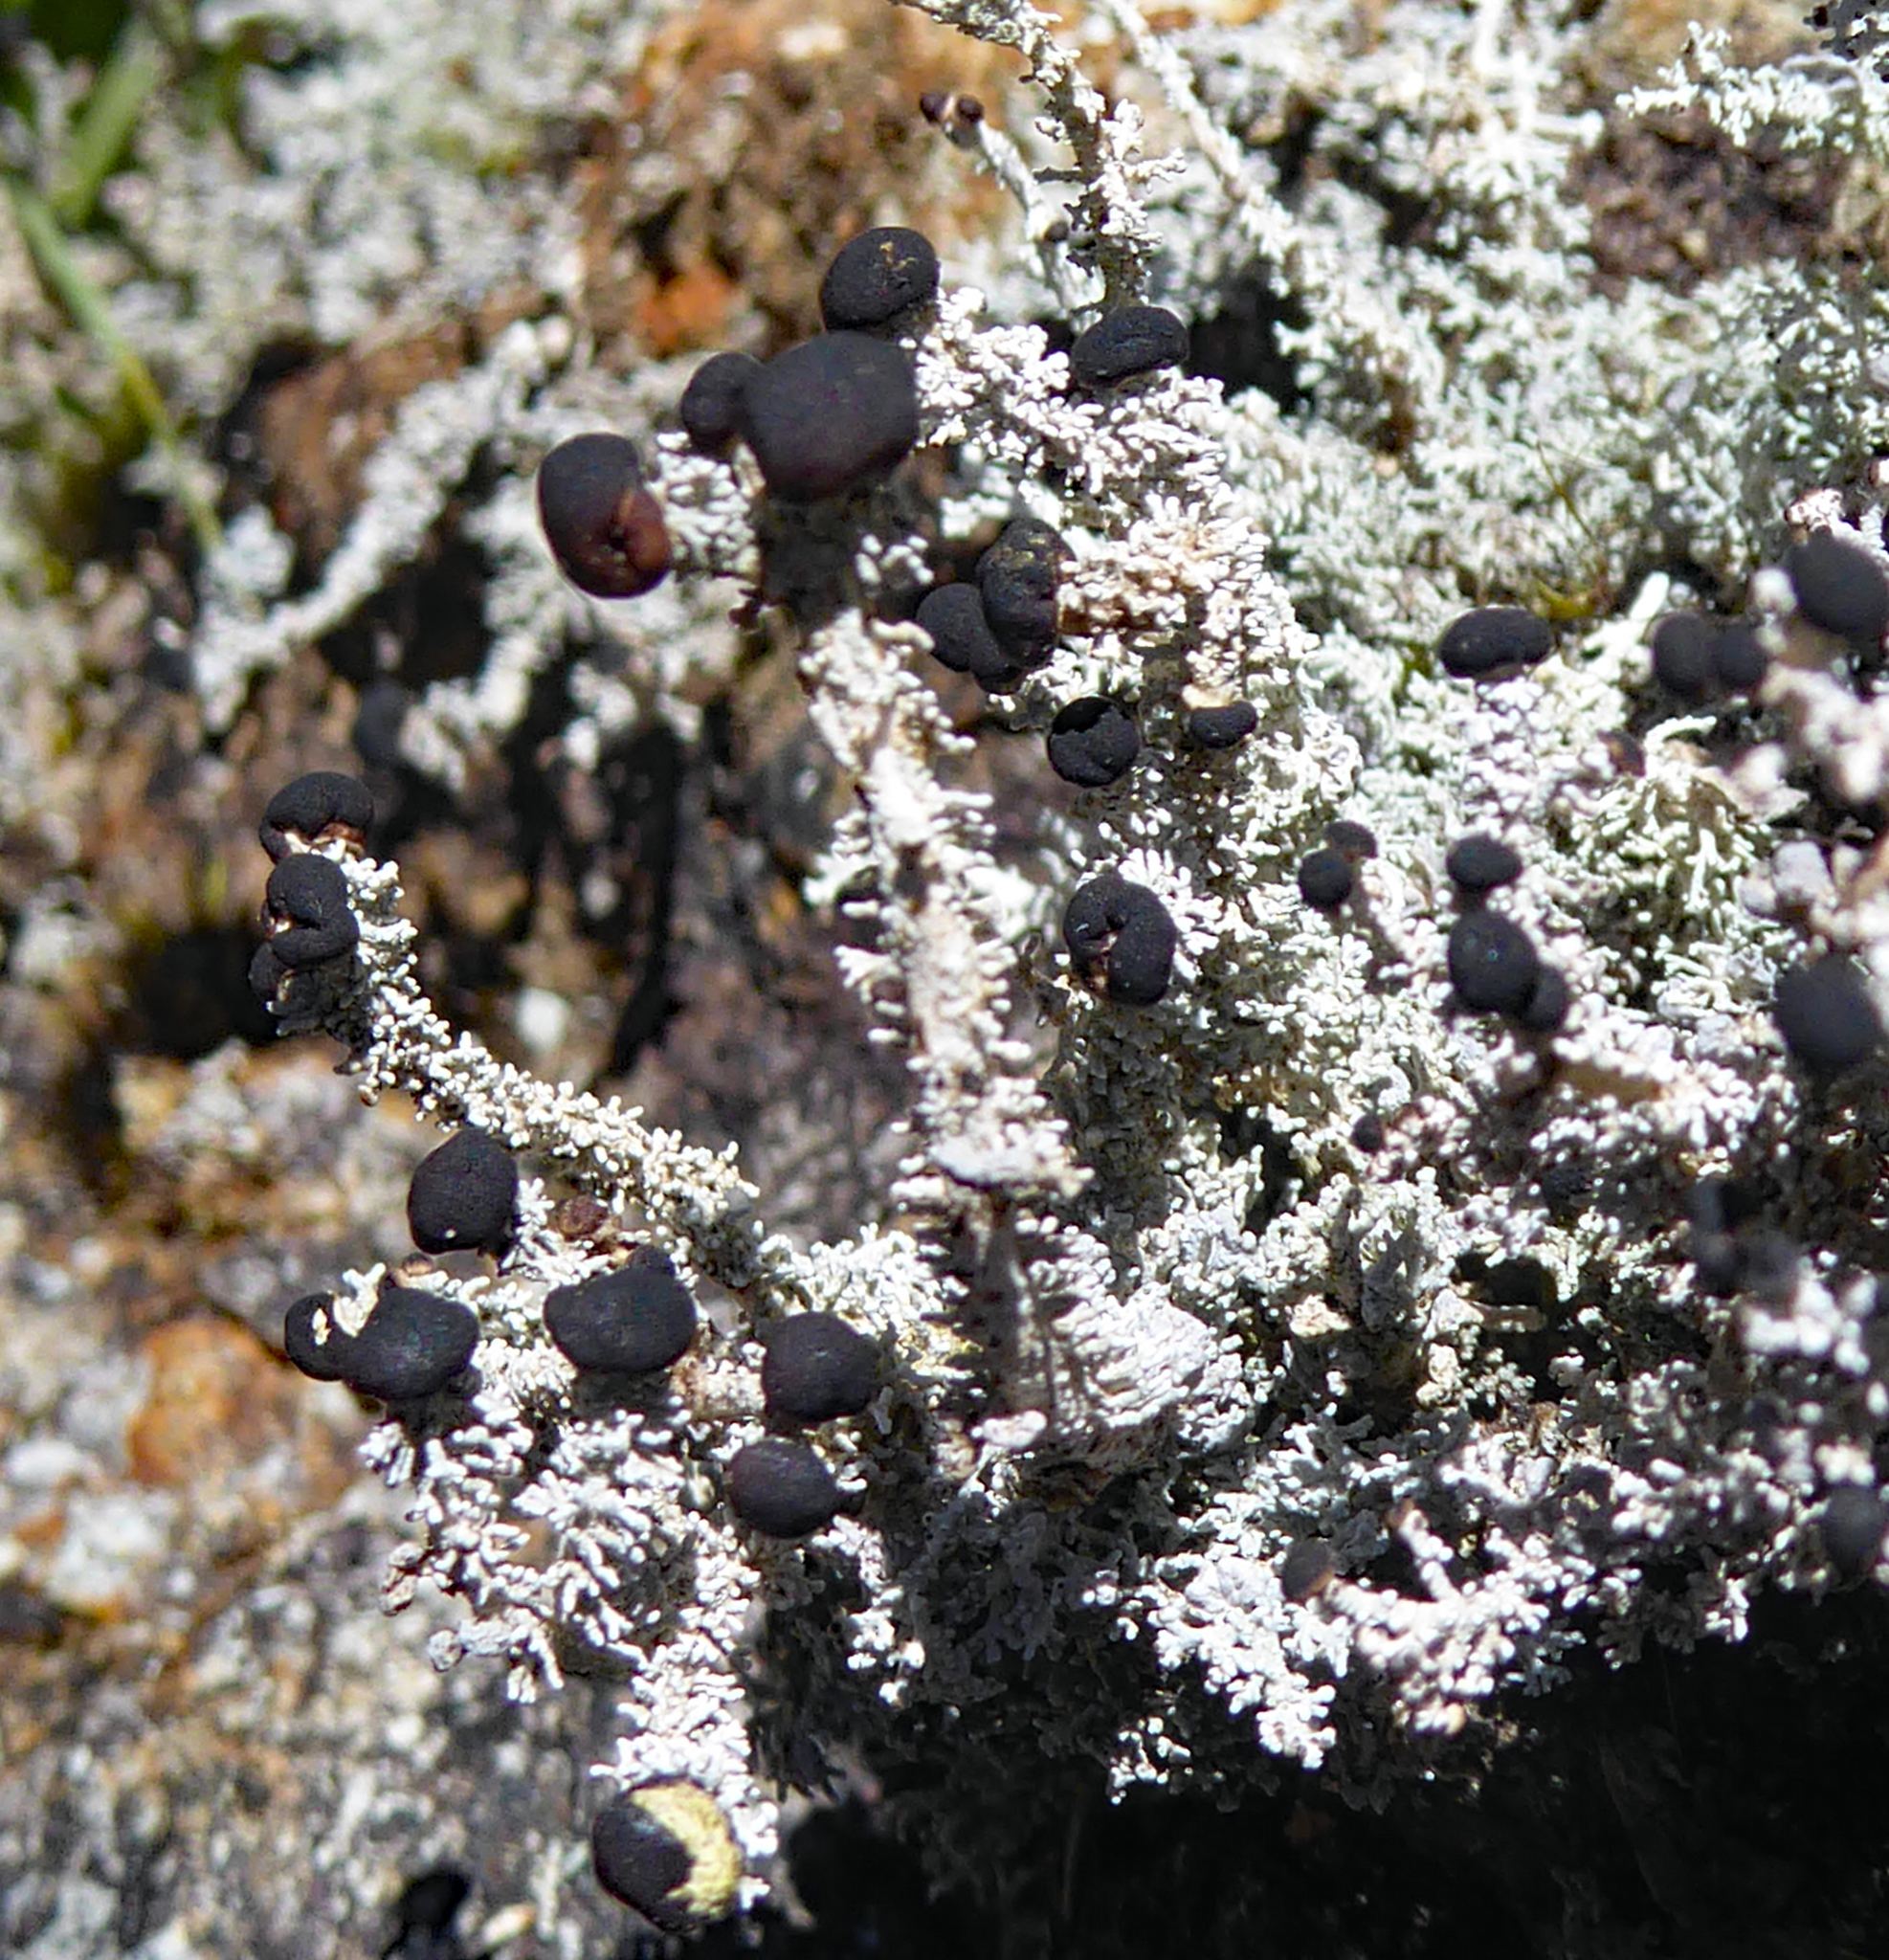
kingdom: Fungi
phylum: Ascomycota
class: Lecanoromycetes
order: Lecanorales
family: Stereocaulaceae
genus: Stereocaulon
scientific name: Stereocaulon
